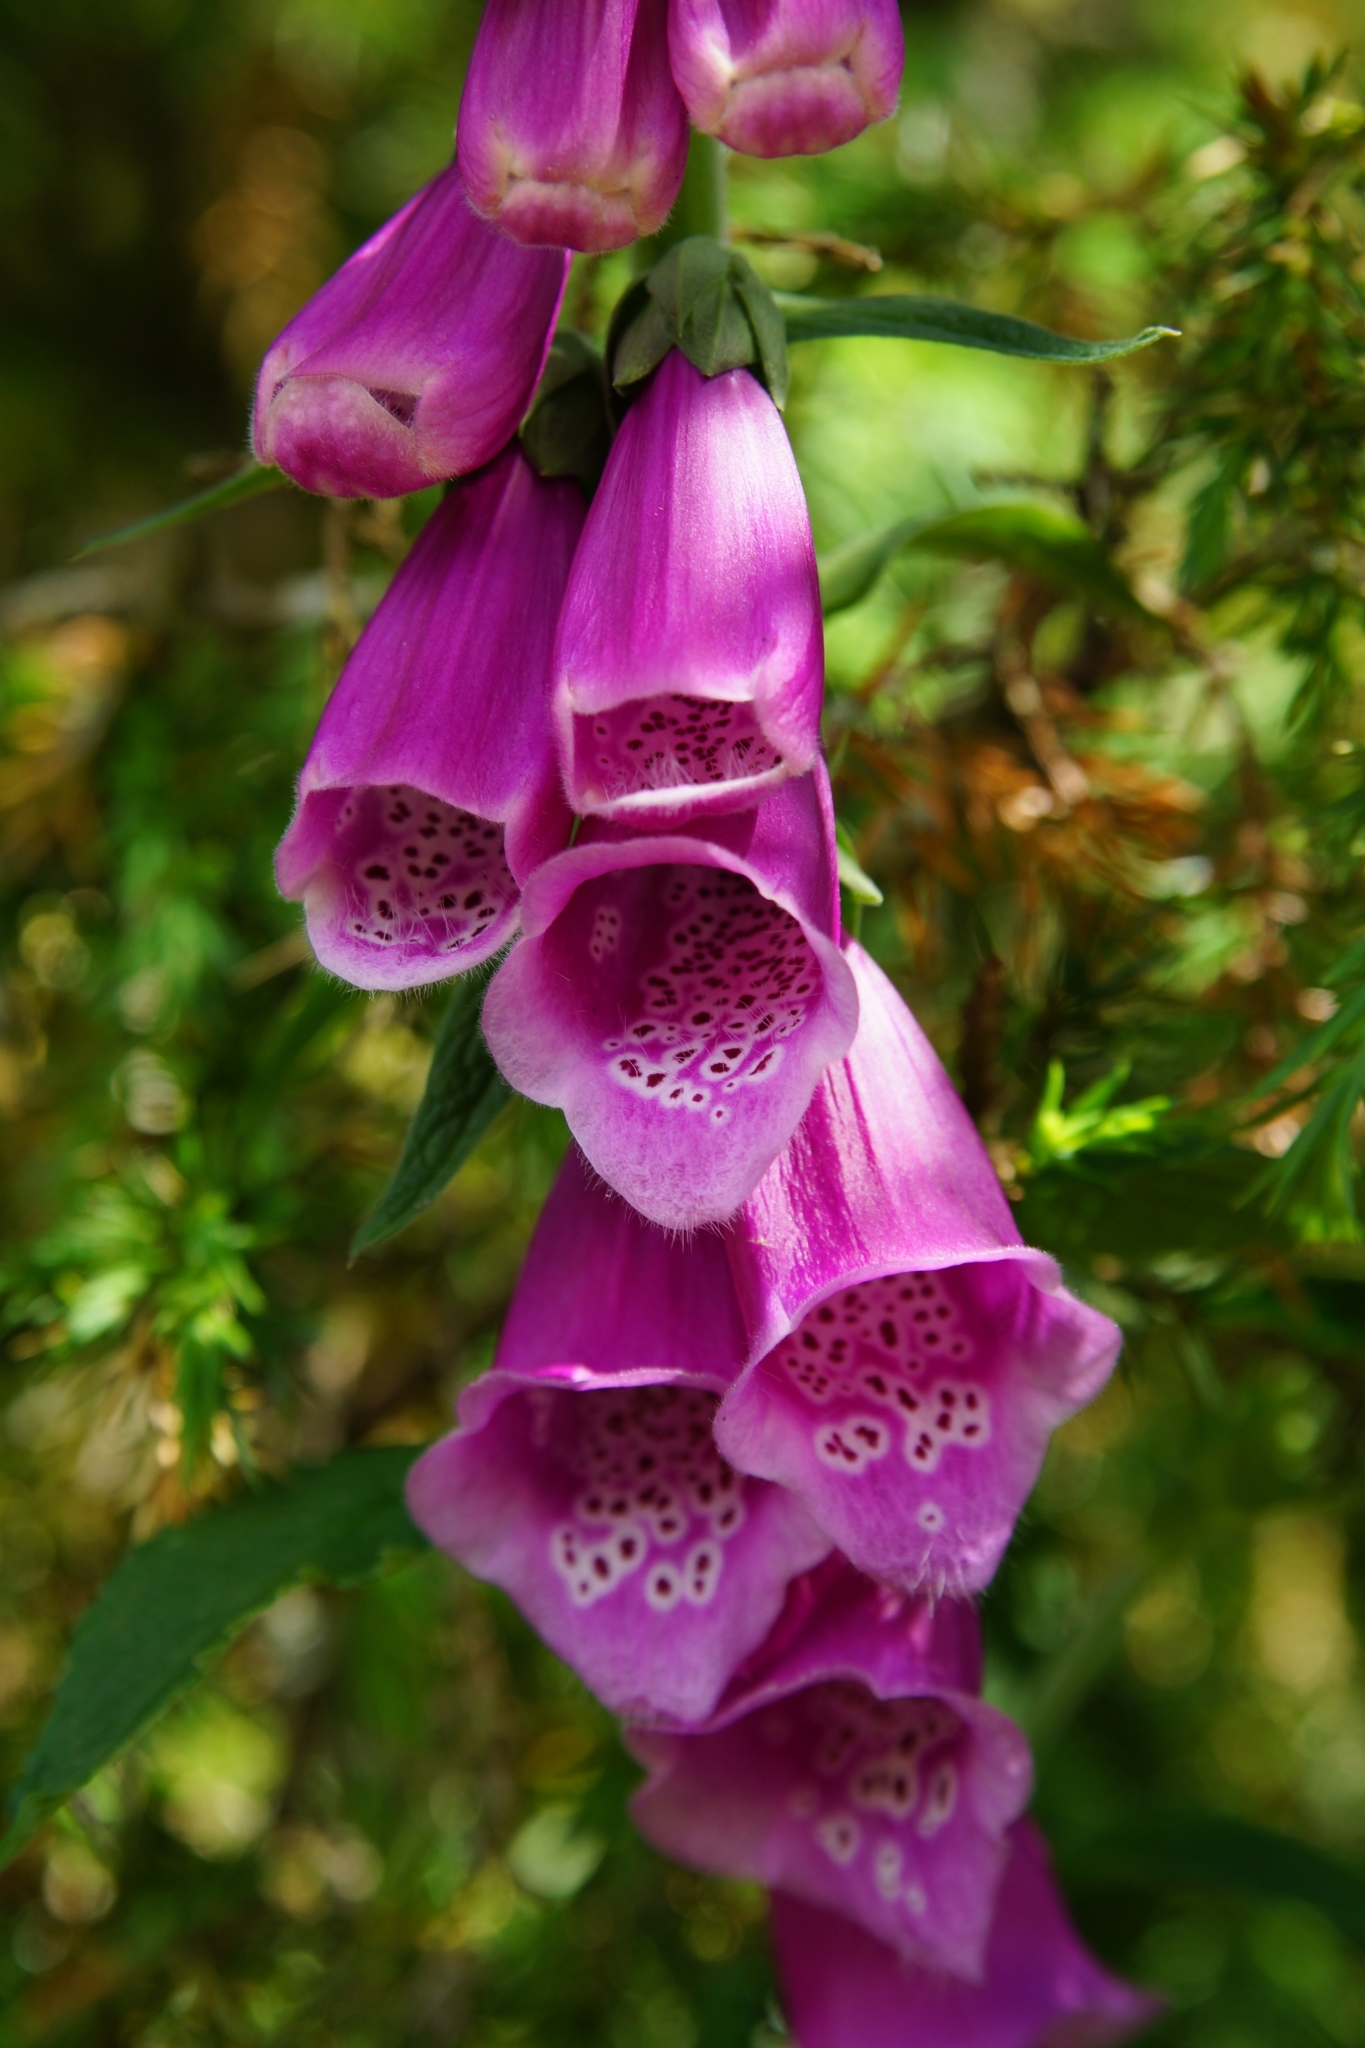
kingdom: Plantae
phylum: Tracheophyta
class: Magnoliopsida
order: Lamiales
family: Plantaginaceae
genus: Digitalis
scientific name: Digitalis purpurea
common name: Foxglove
